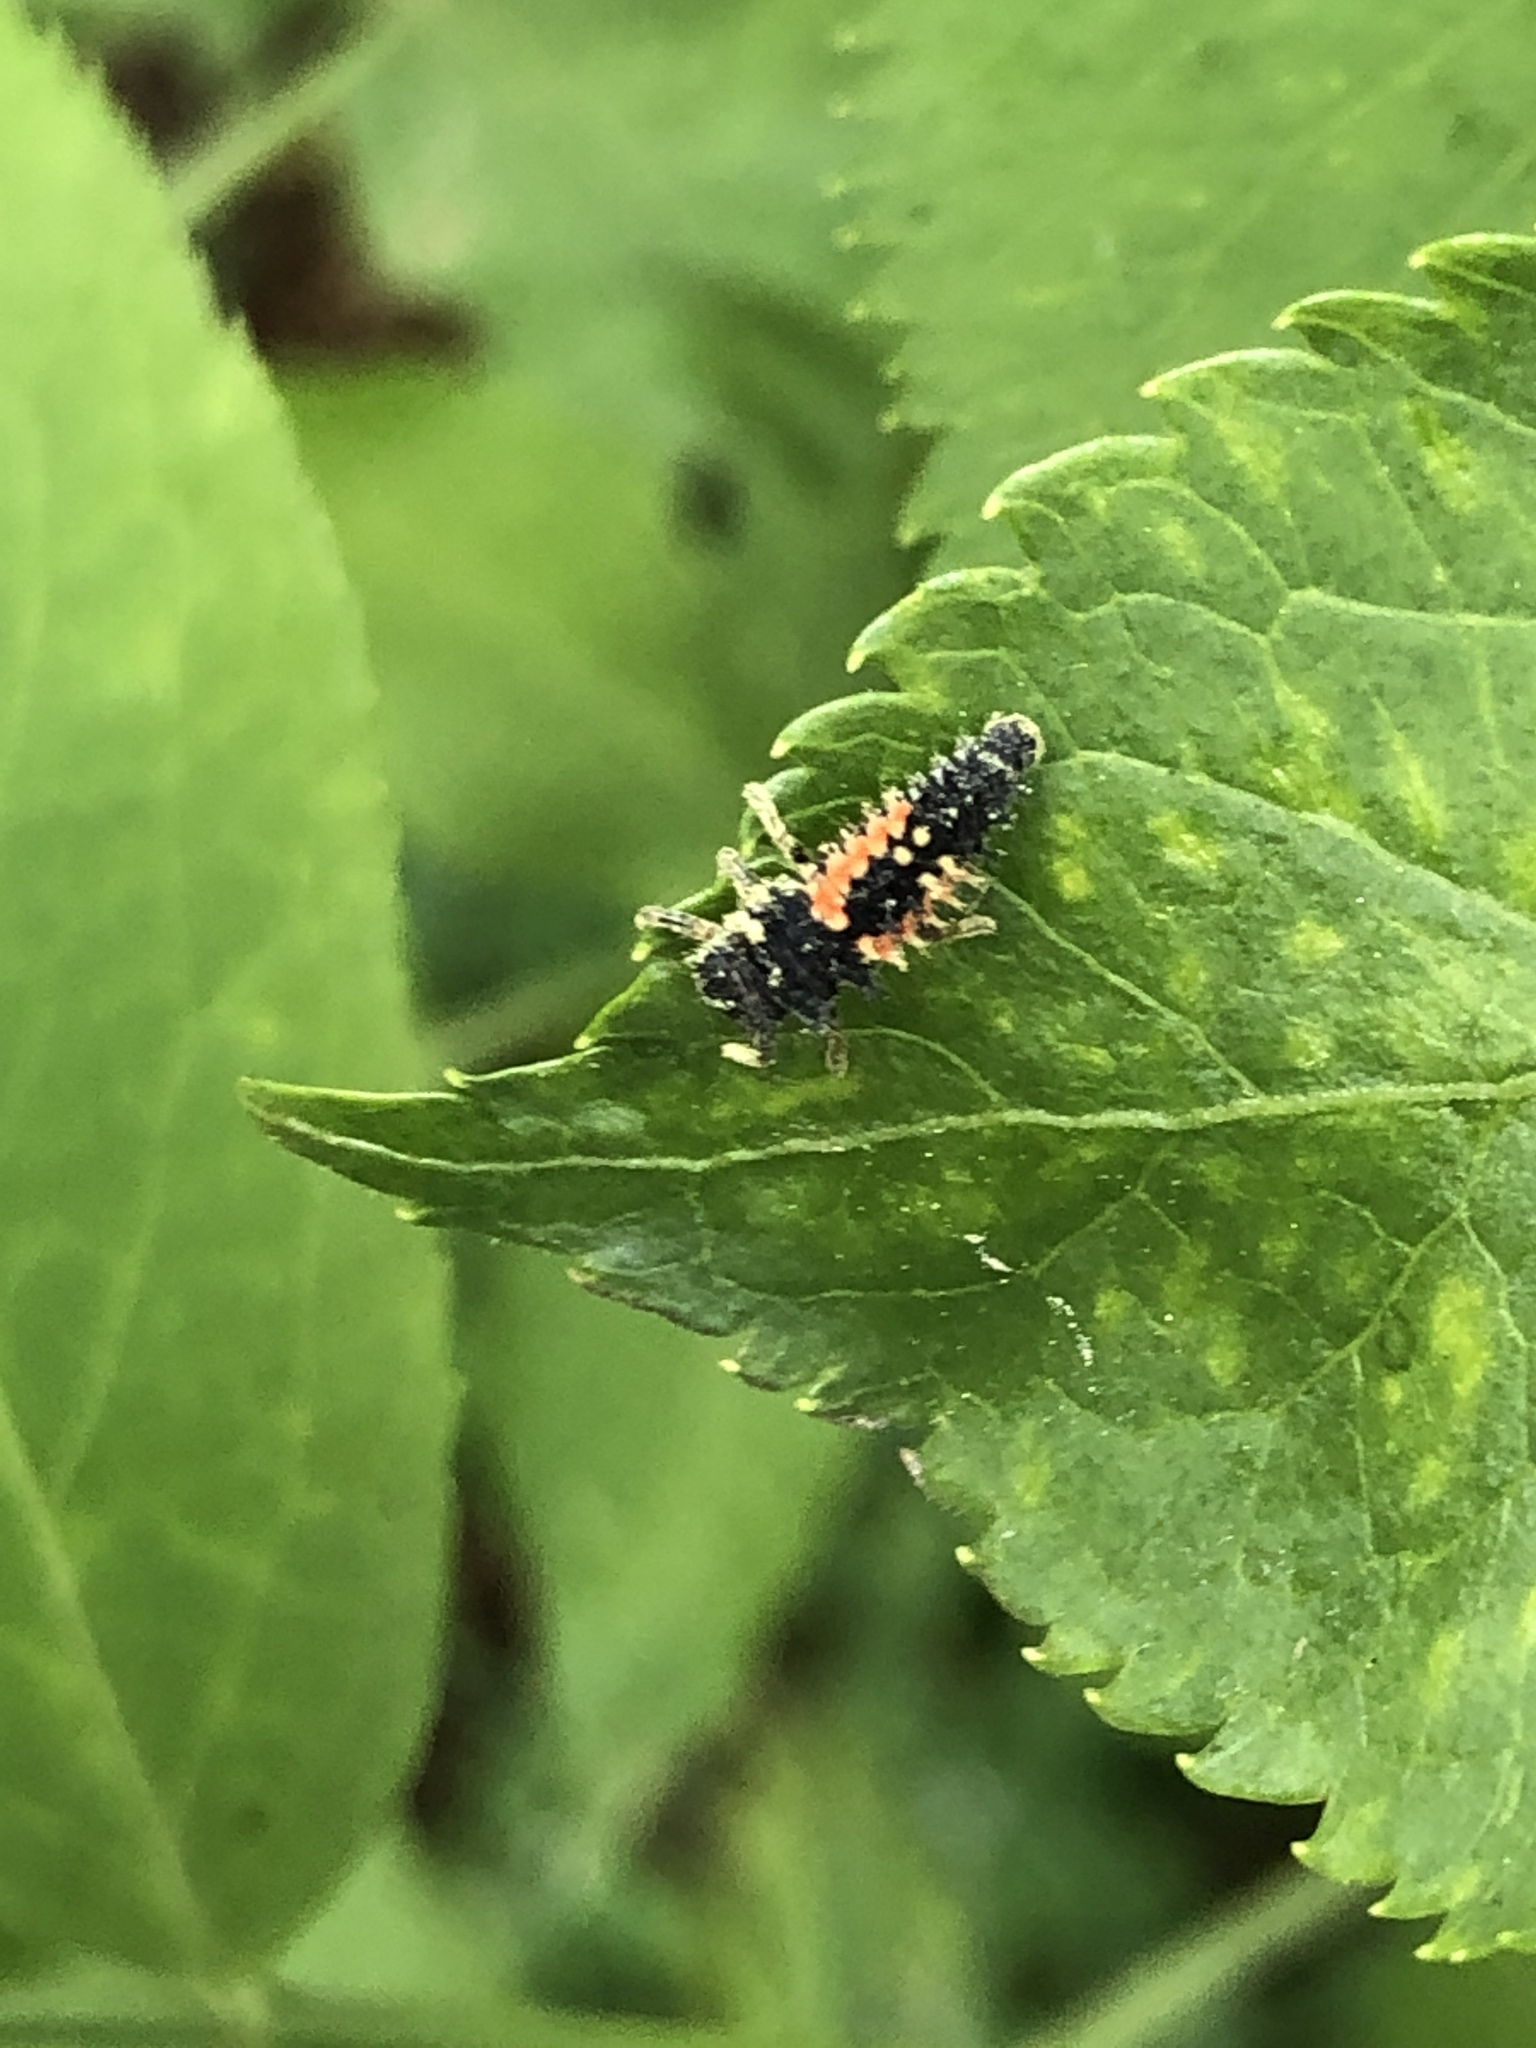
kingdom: Animalia
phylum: Arthropoda
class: Insecta
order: Coleoptera
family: Coccinellidae
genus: Harmonia
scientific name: Harmonia axyridis
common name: Harlequin ladybird
